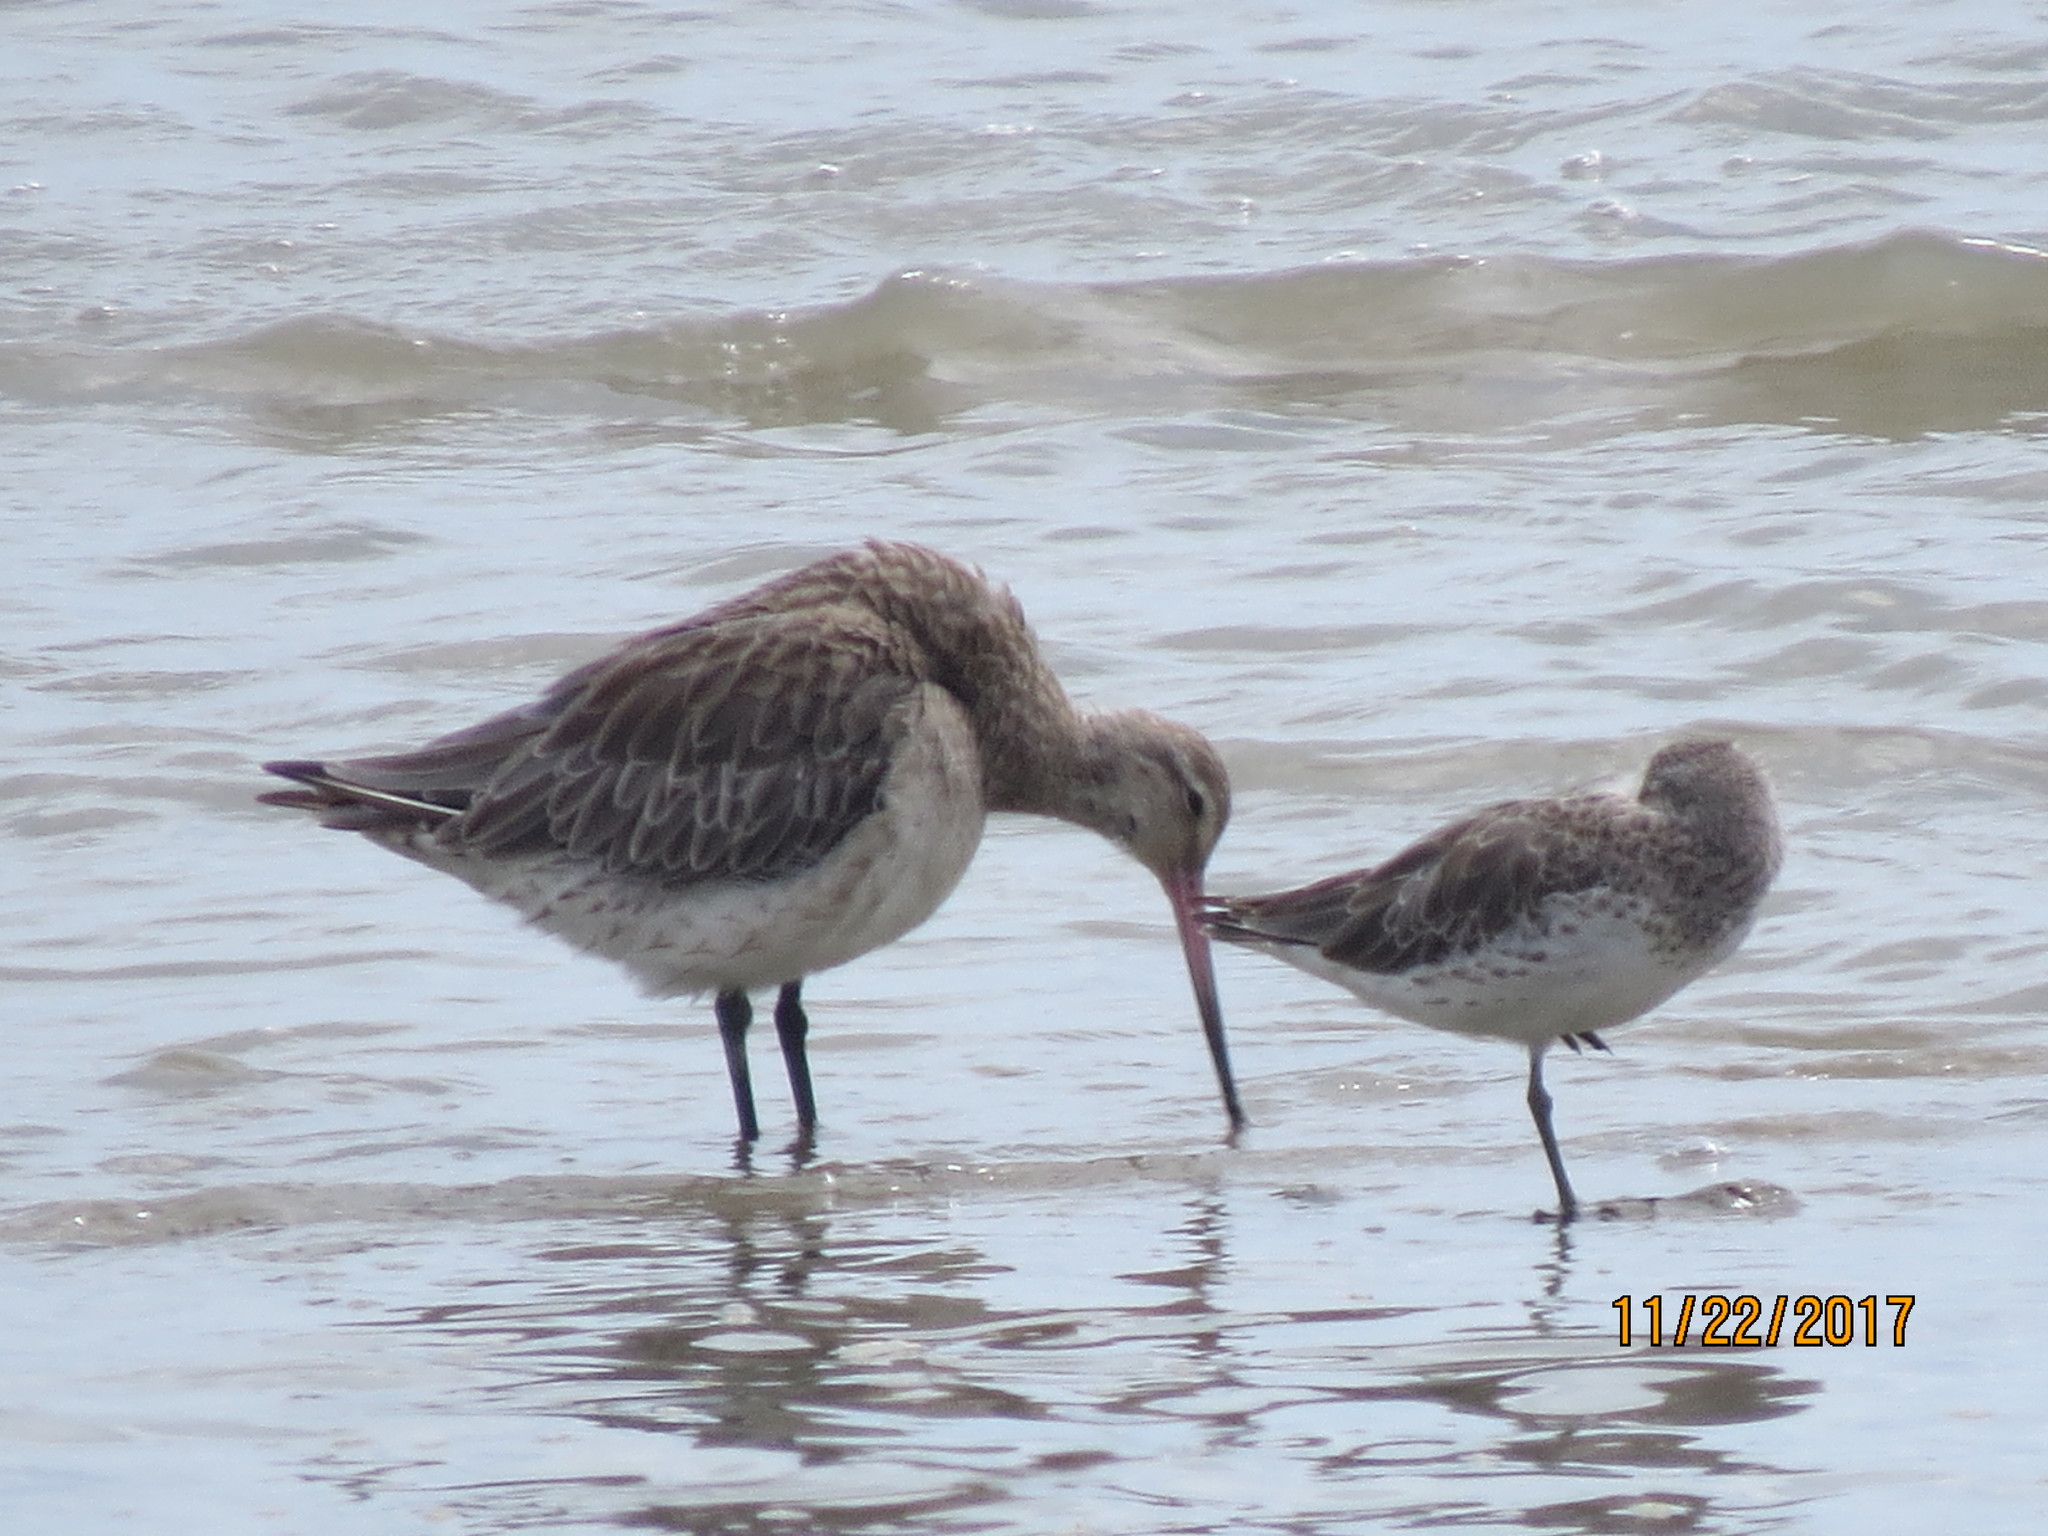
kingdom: Animalia
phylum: Chordata
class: Aves
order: Charadriiformes
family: Scolopacidae
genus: Limosa
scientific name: Limosa lapponica
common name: Bar-tailed godwit
